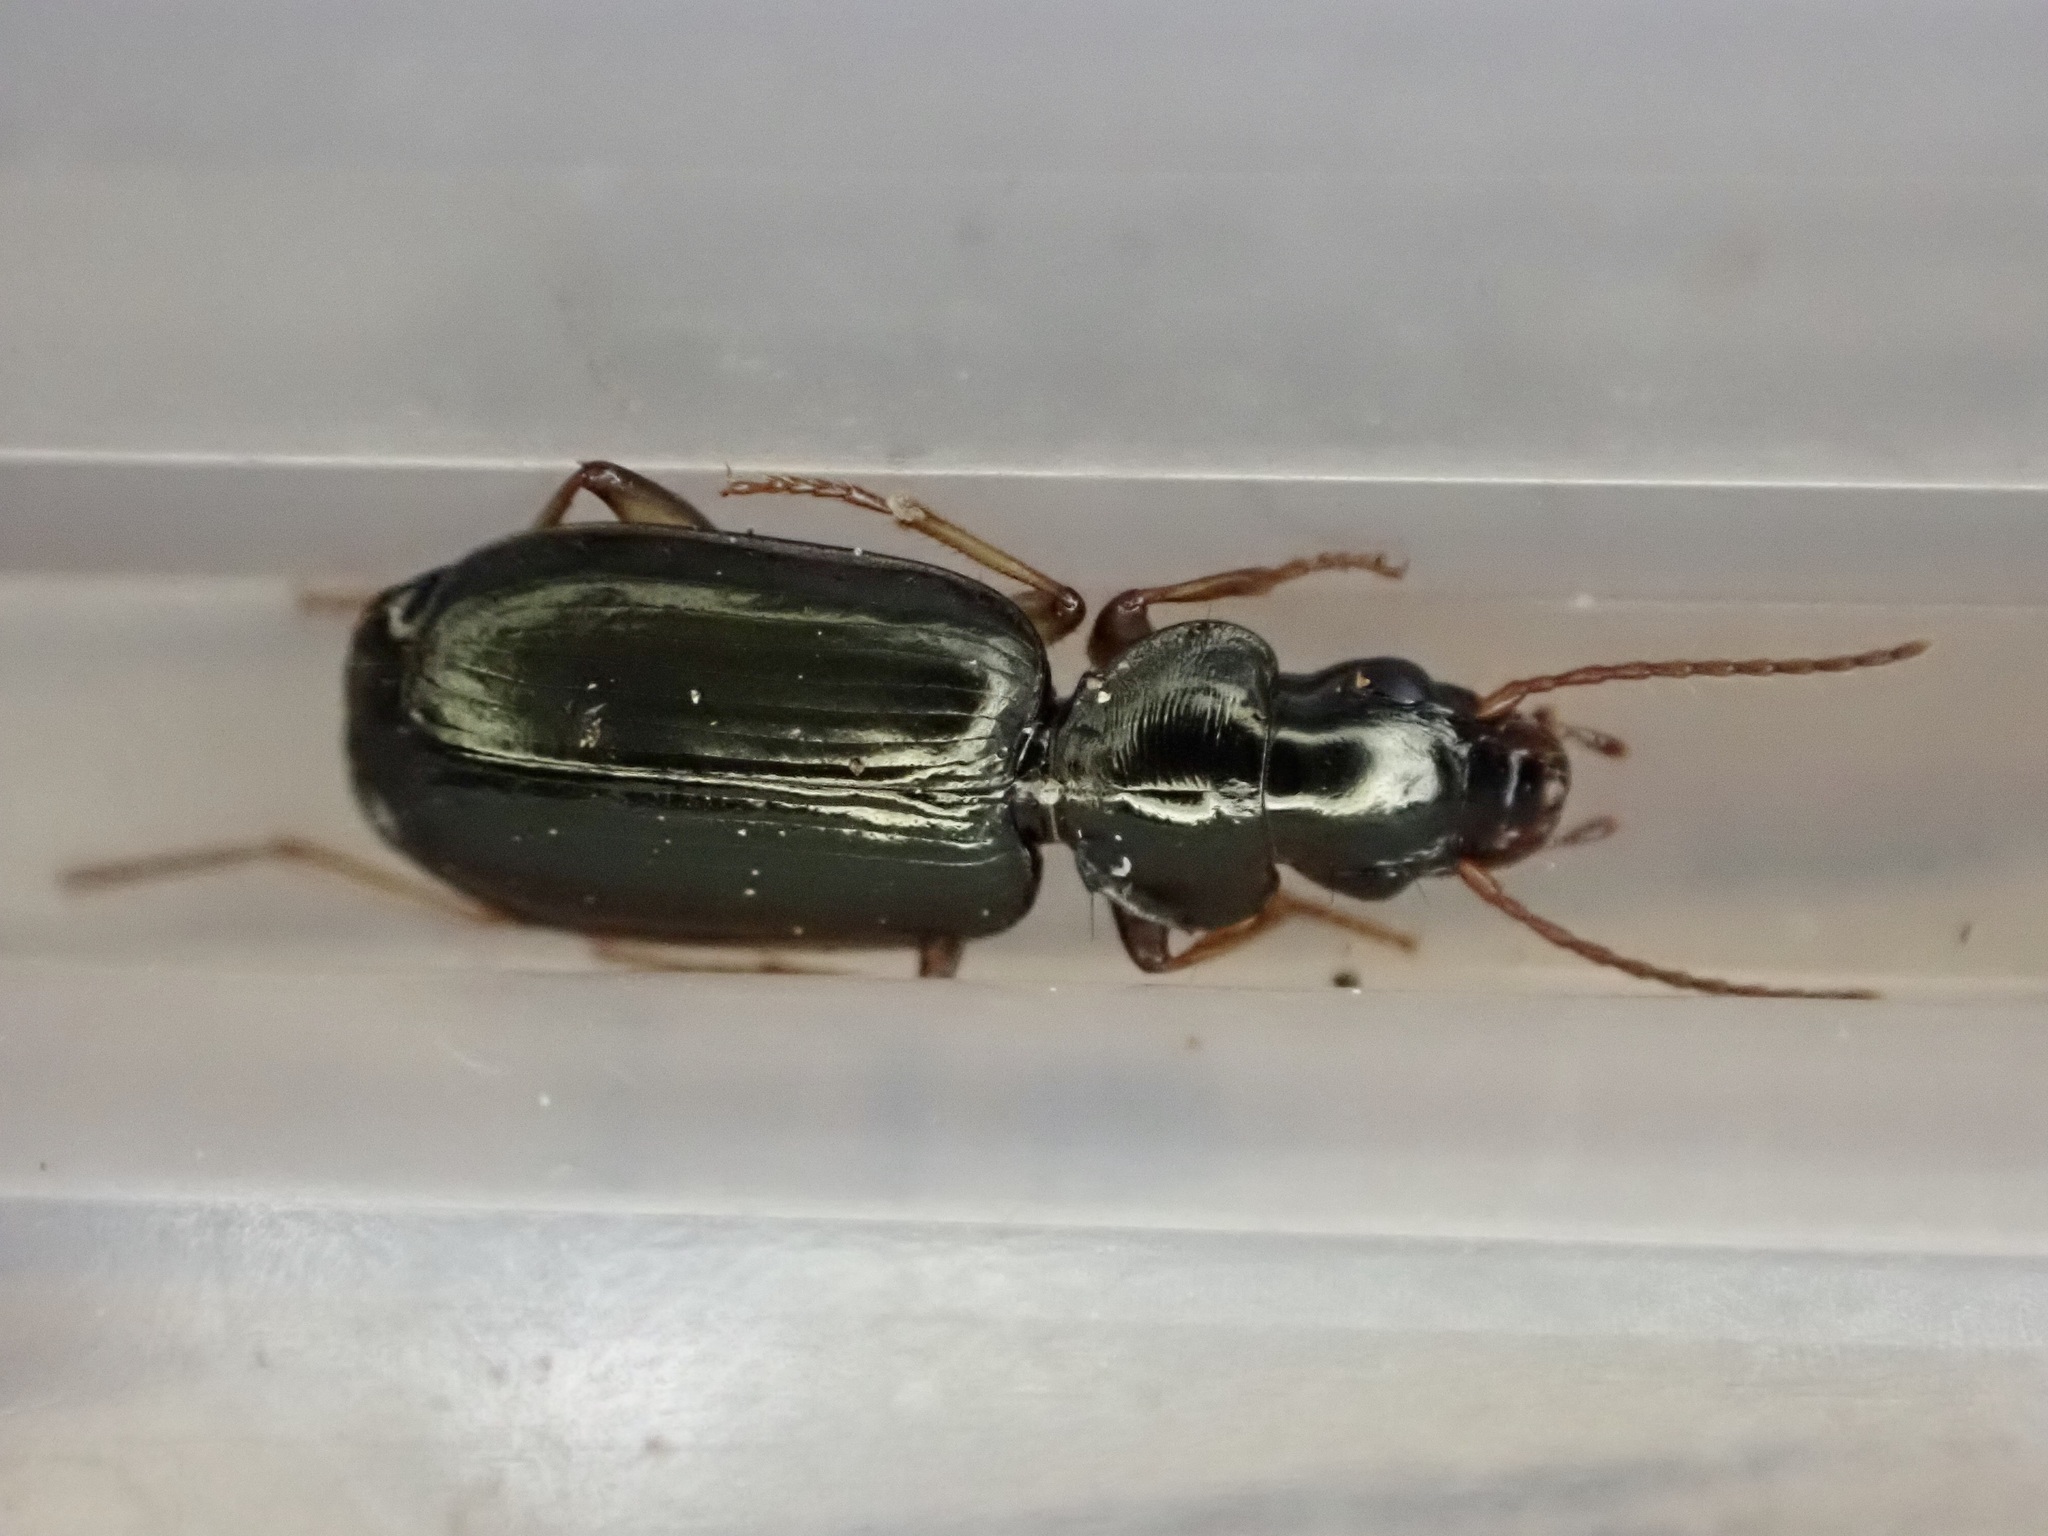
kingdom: Animalia
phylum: Arthropoda
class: Insecta
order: Coleoptera
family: Carabidae
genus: Anomotarus
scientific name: Anomotarus illawarrae
